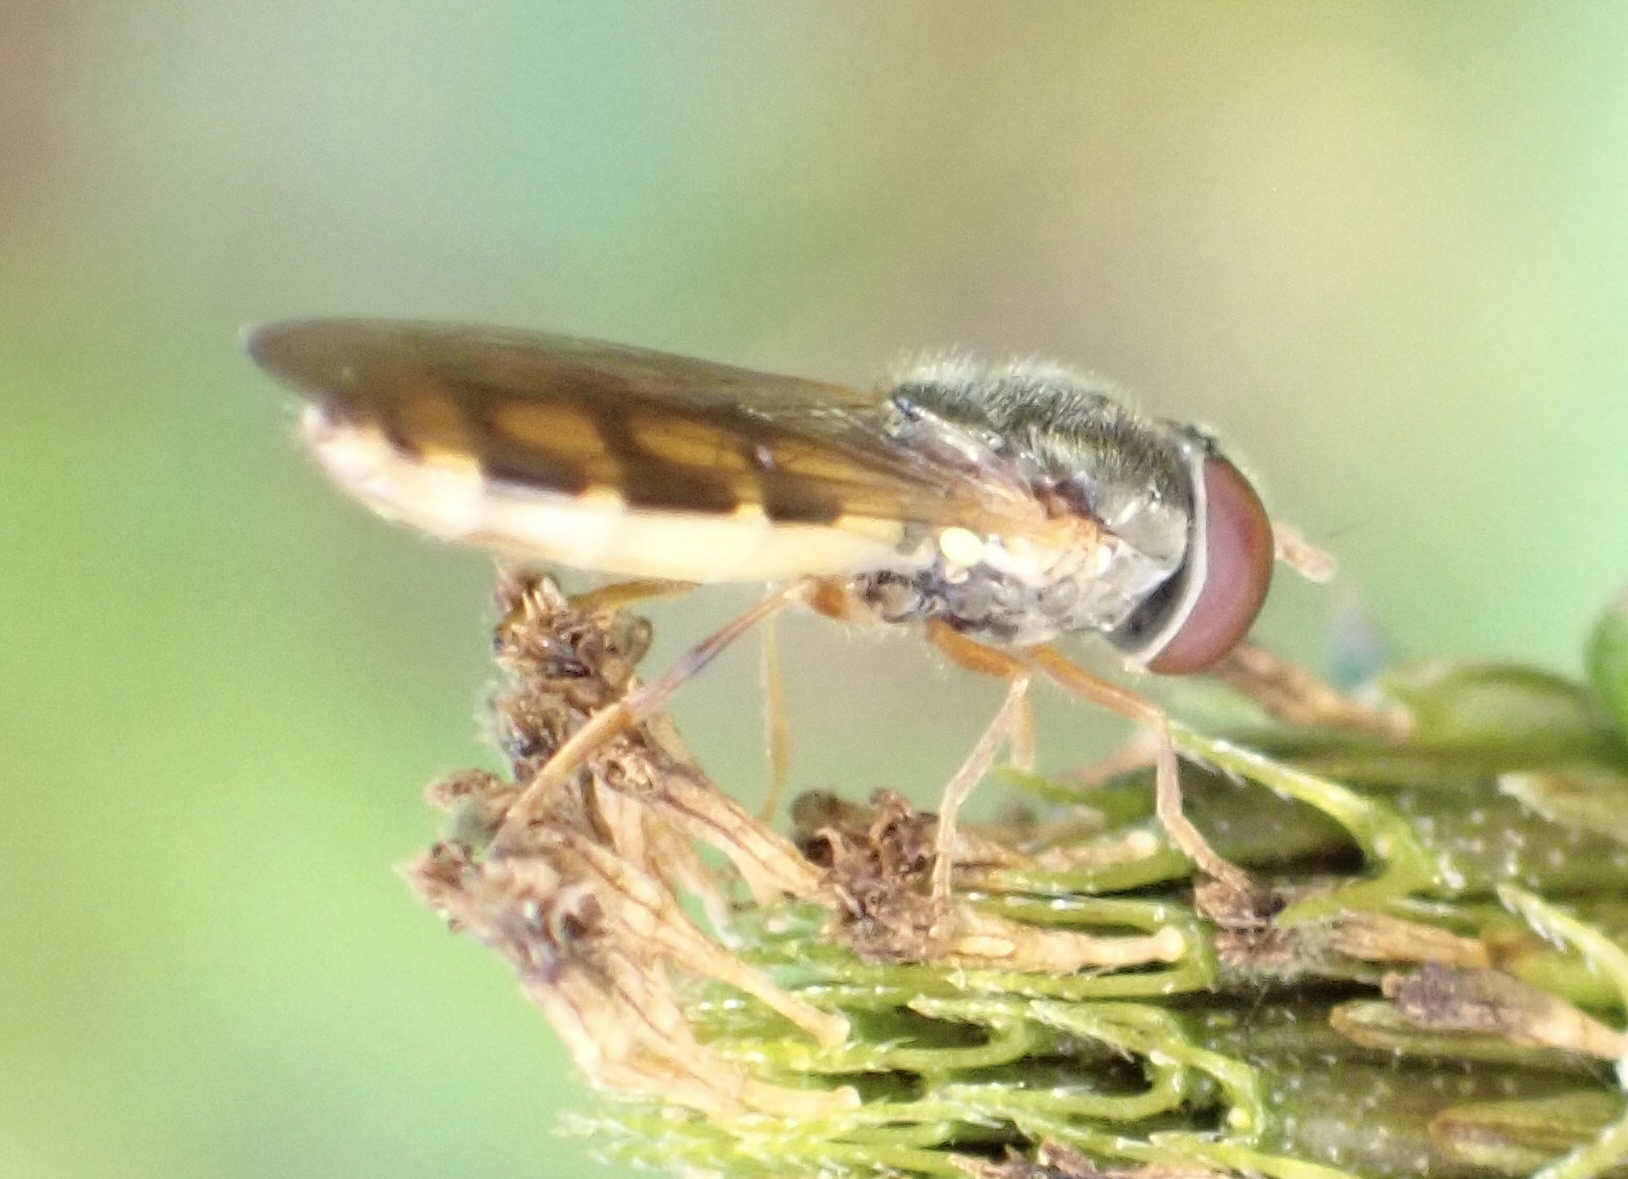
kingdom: Animalia
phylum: Arthropoda
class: Insecta
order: Diptera
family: Syrphidae
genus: Melanostoma
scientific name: Melanostoma apicale
